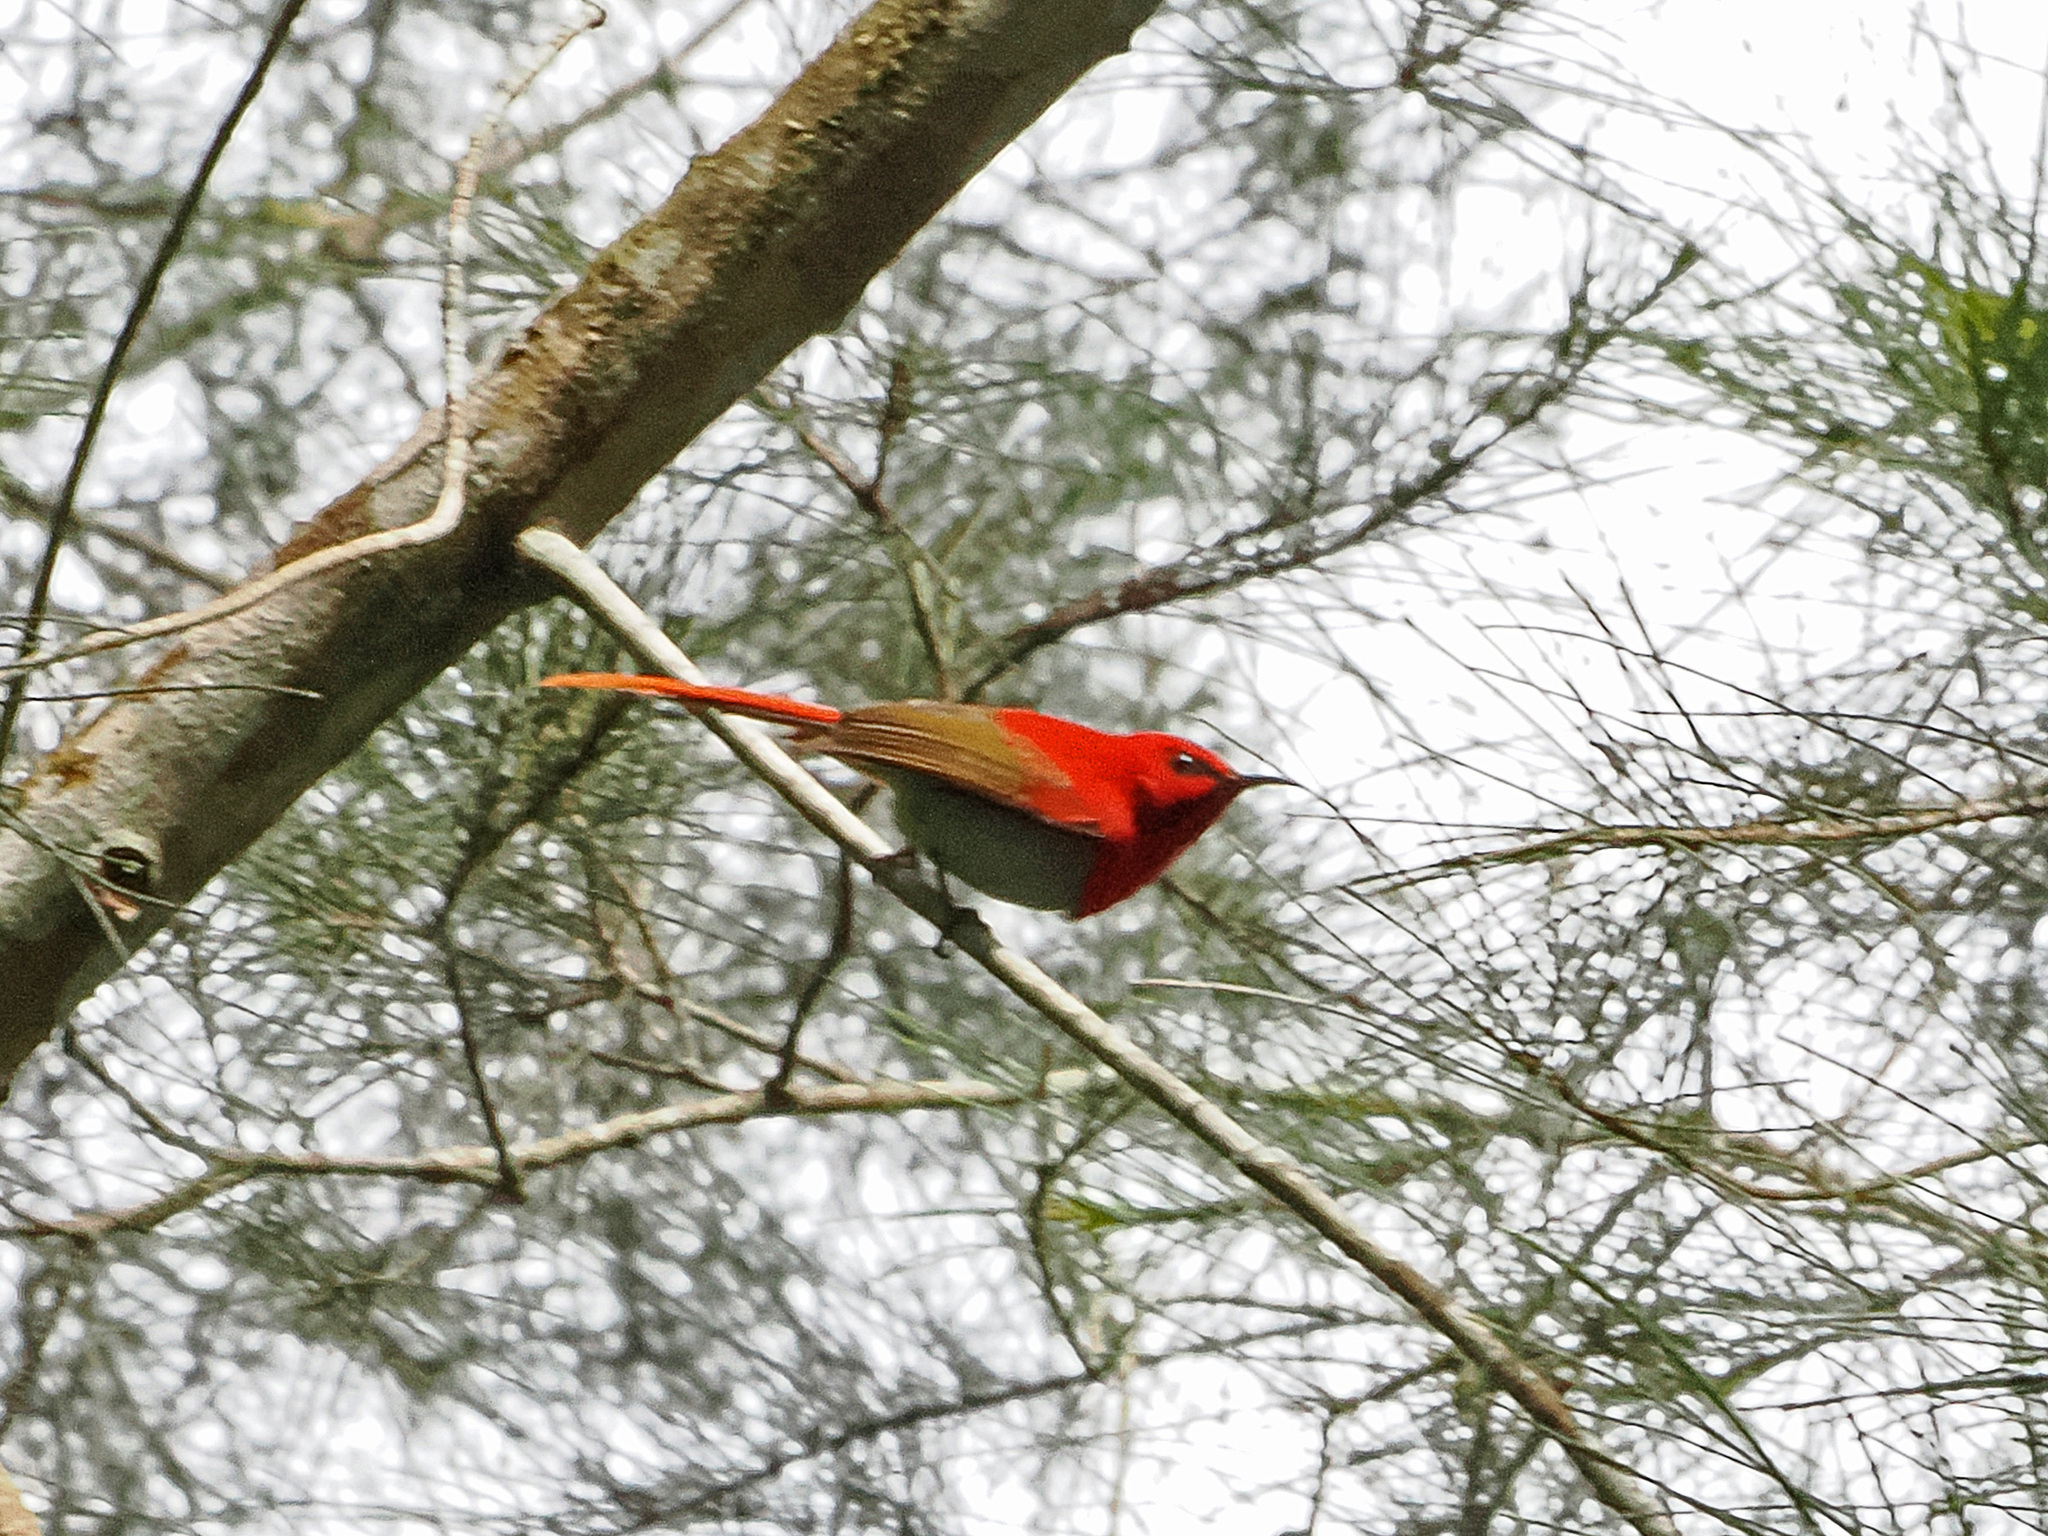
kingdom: Animalia
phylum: Chordata
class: Aves
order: Passeriformes
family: Nectariniidae
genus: Aethopyga
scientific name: Aethopyga temminckii
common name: Temminck's sunbird
